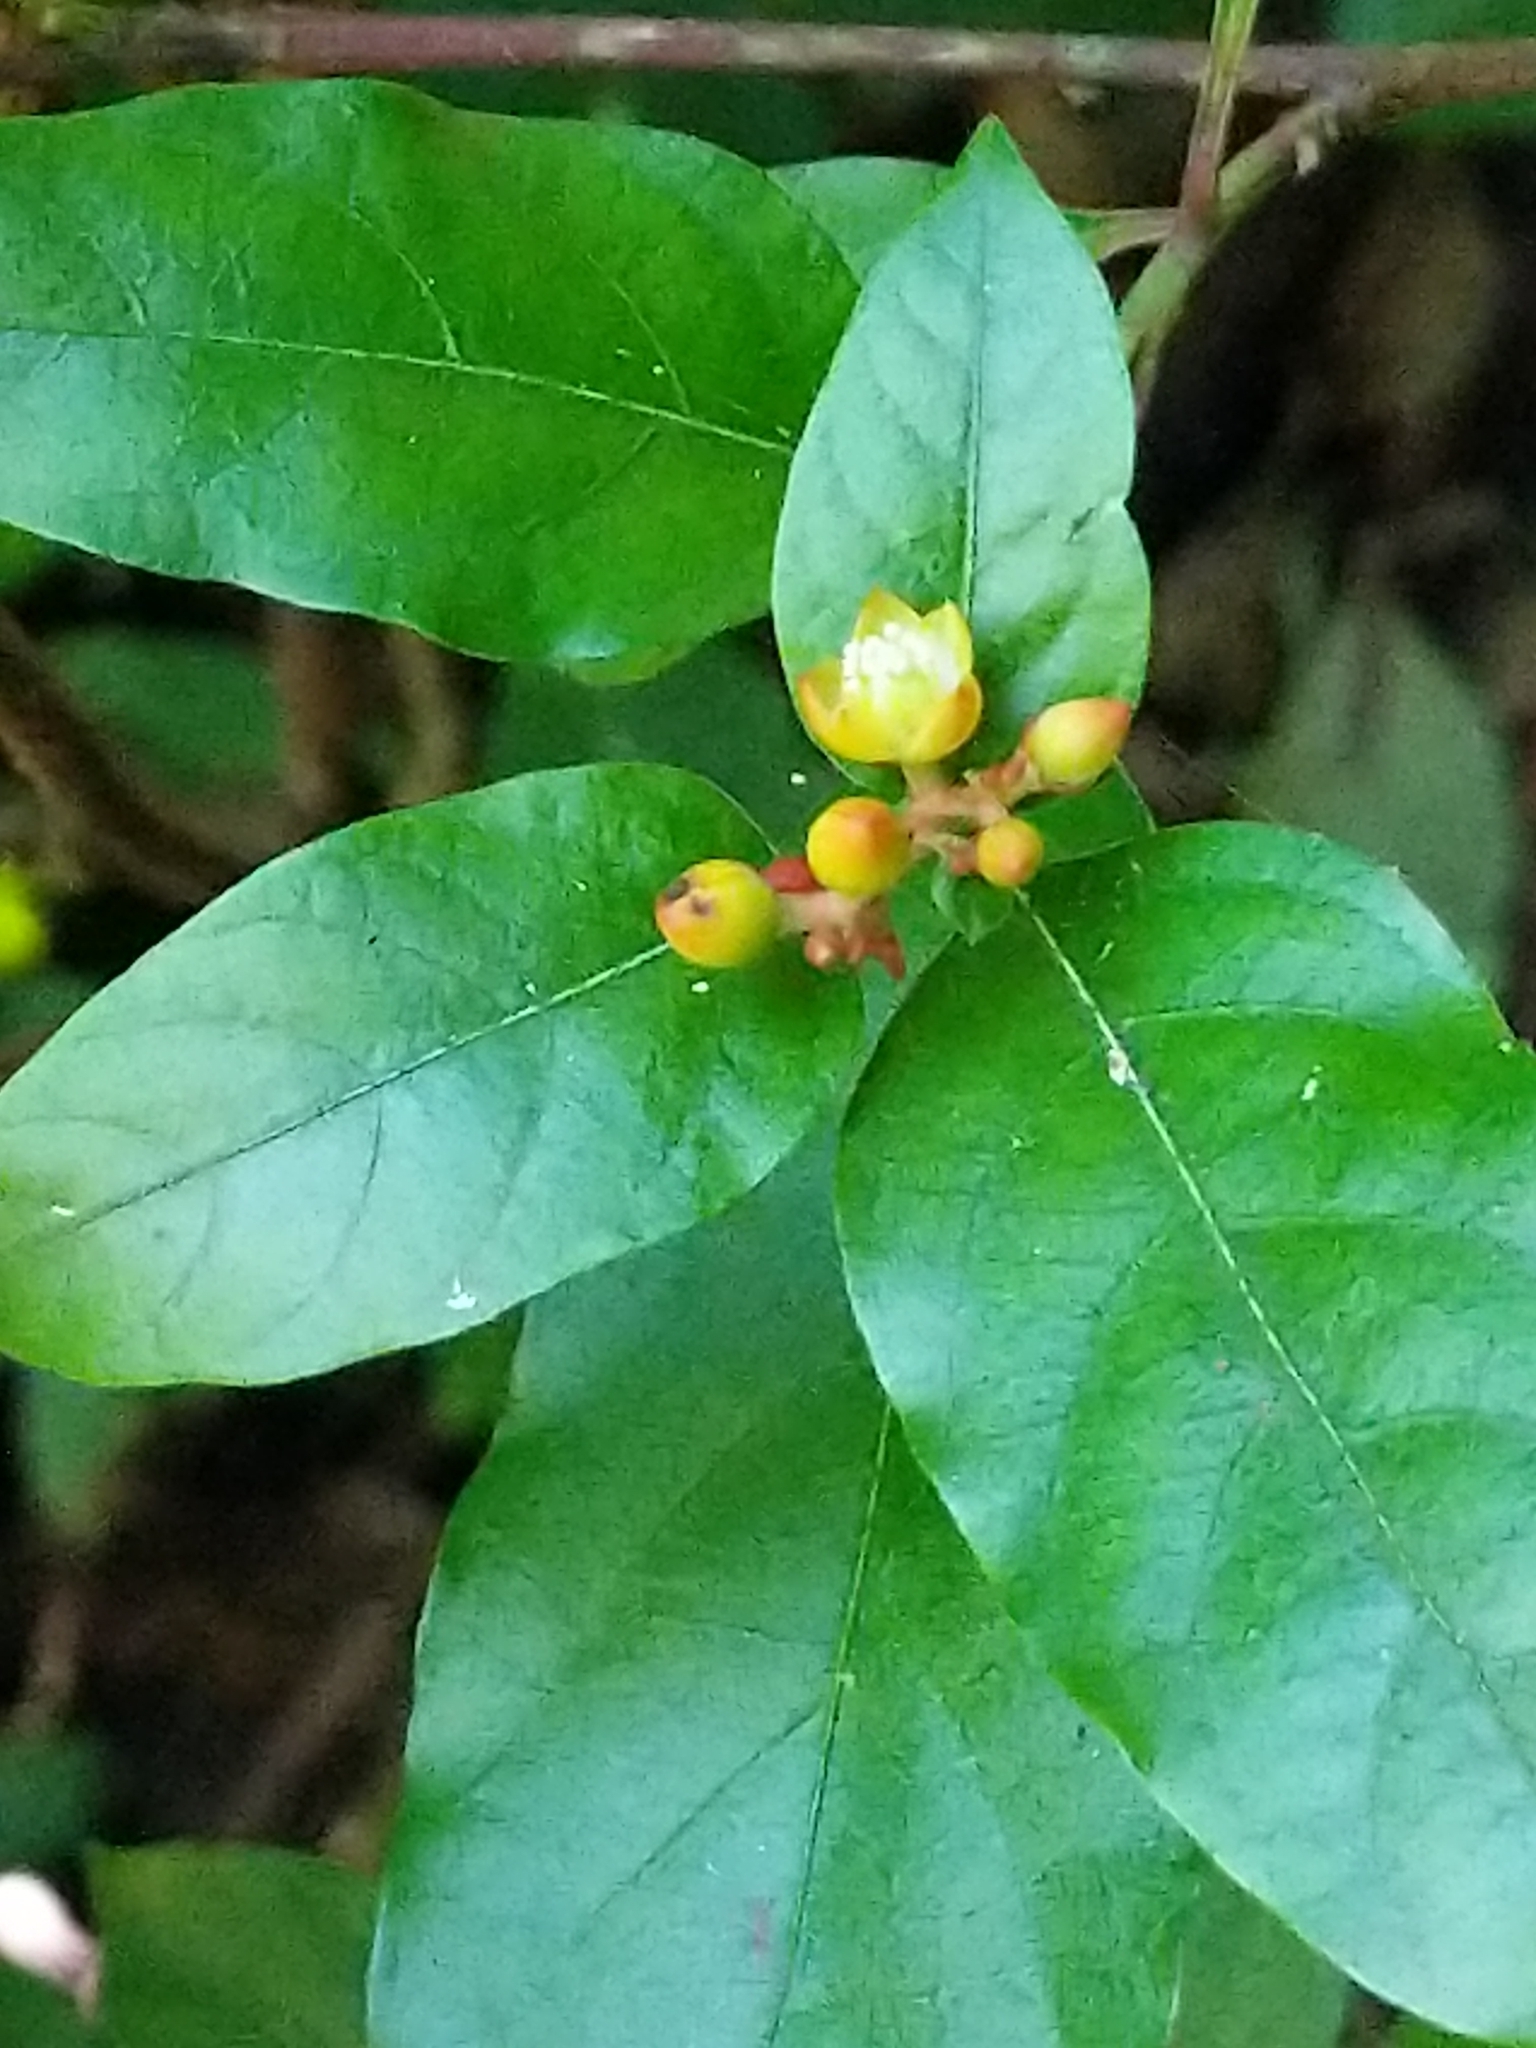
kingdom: Plantae
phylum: Tracheophyta
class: Magnoliopsida
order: Caryophyllales
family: Amaranthaceae
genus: Pleuropetalum
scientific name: Pleuropetalum sprucei
